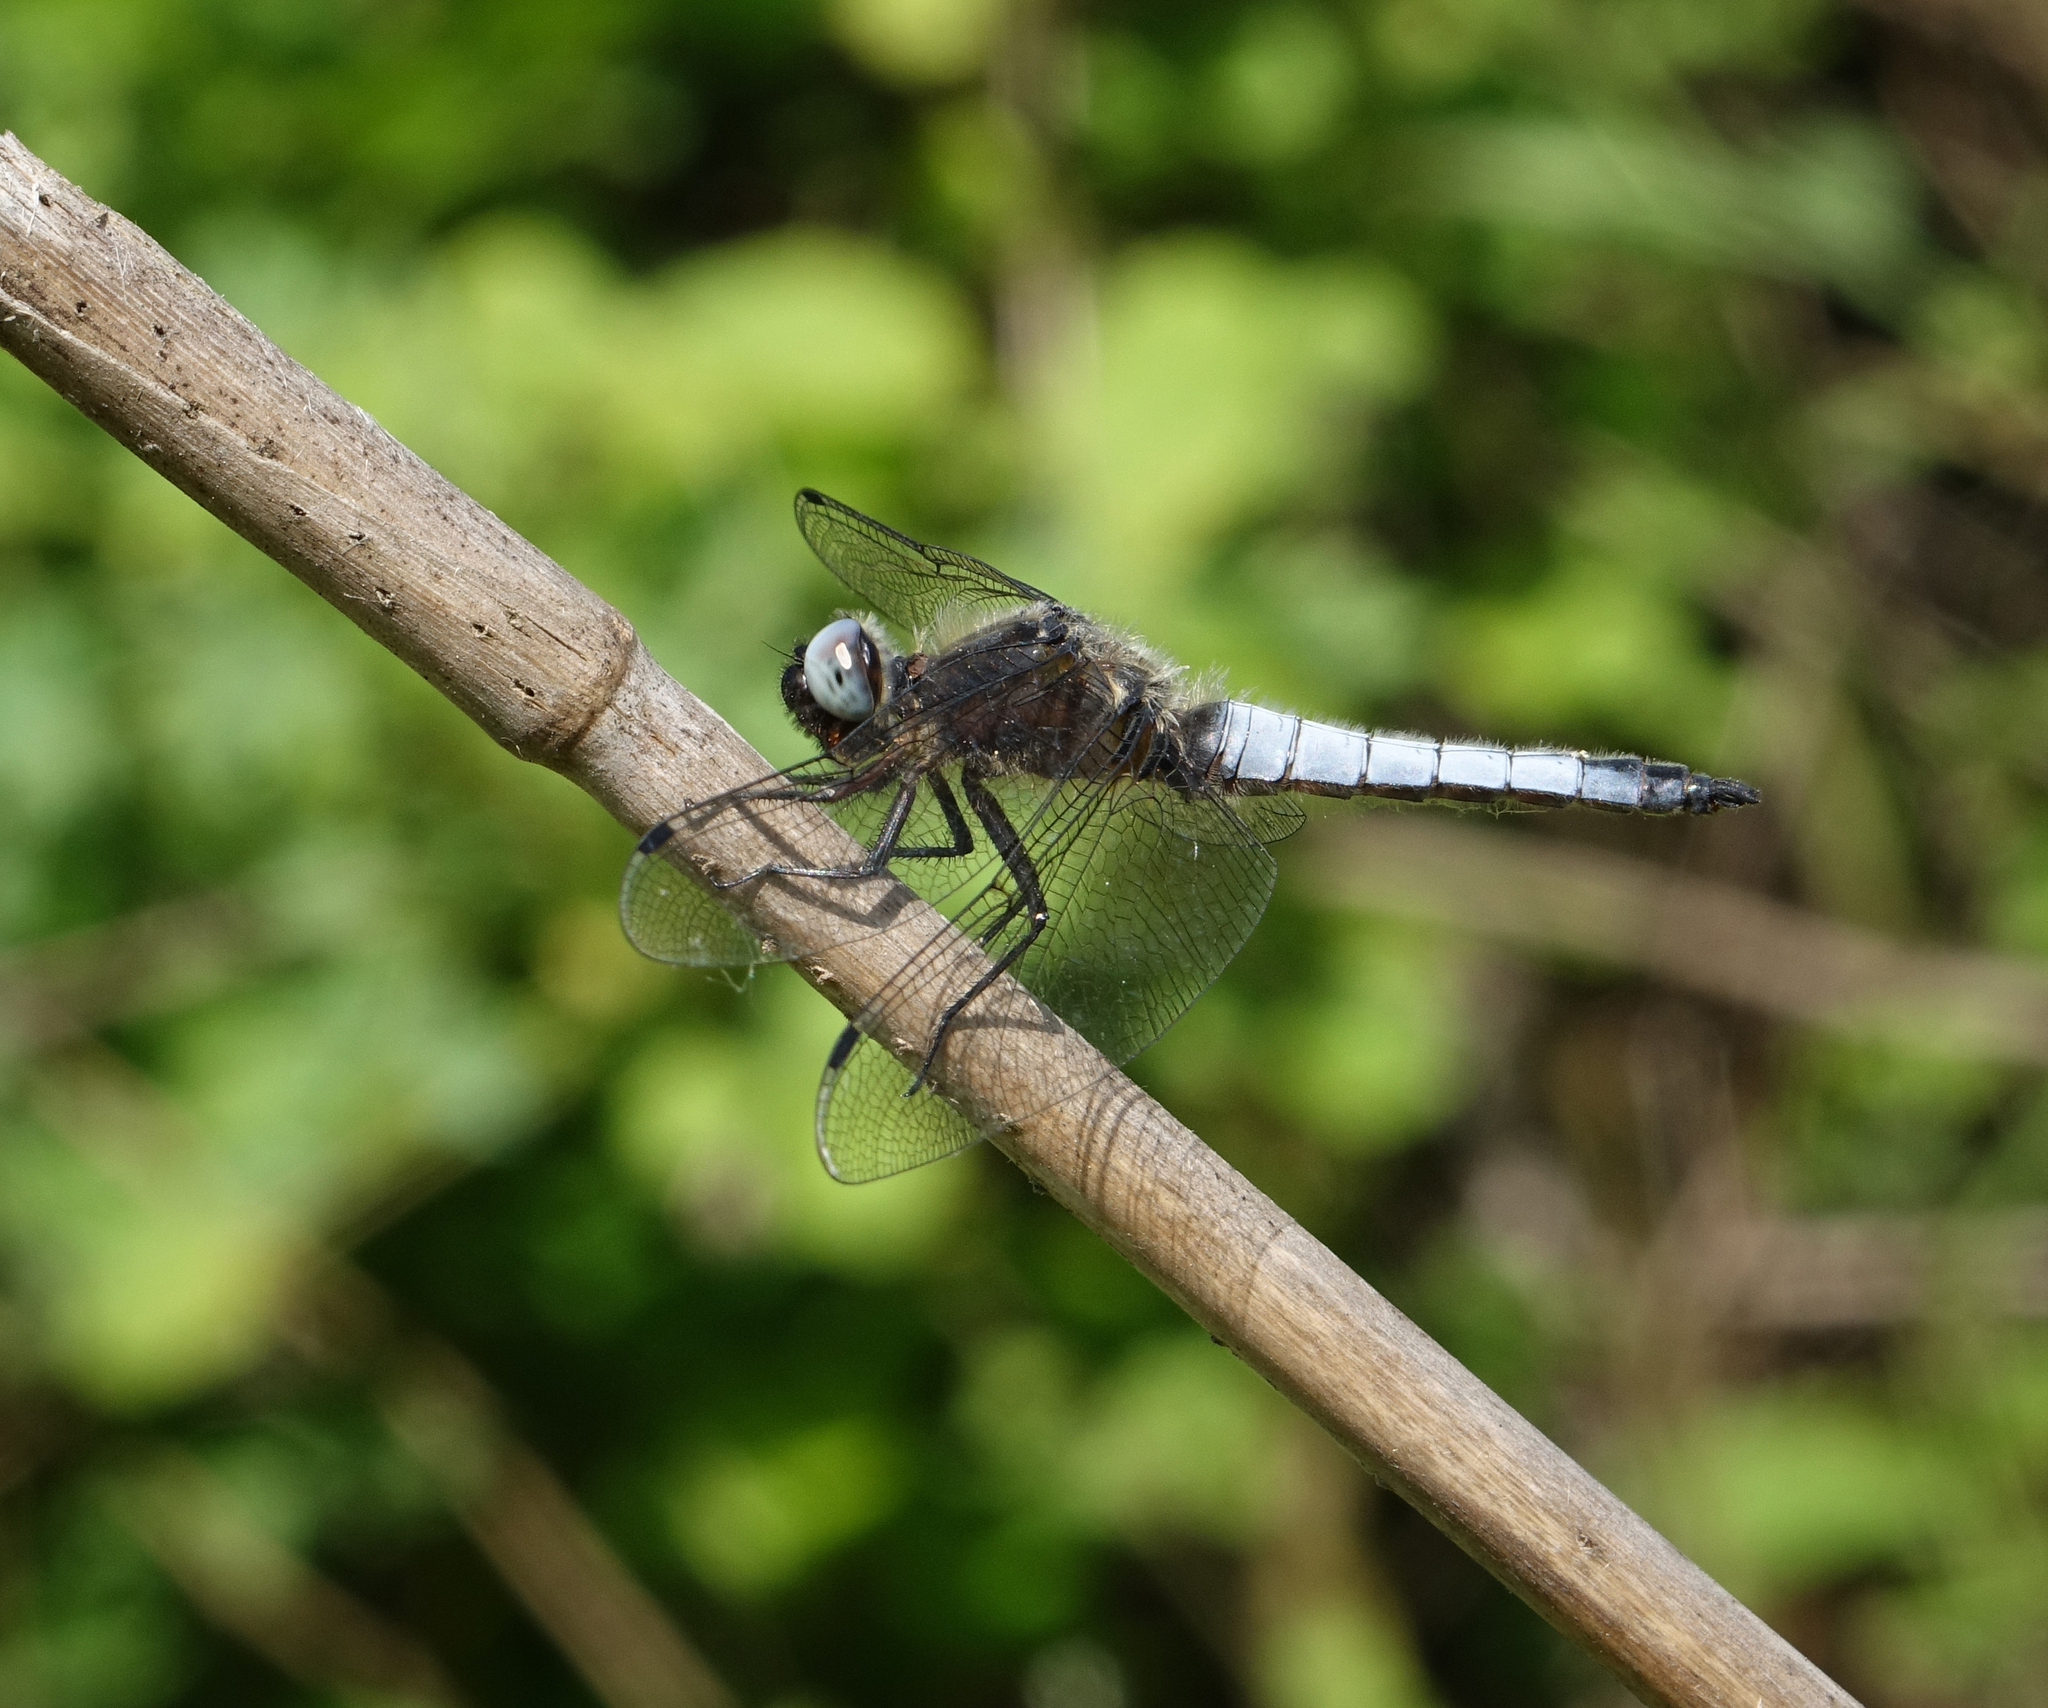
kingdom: Animalia
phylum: Arthropoda
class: Insecta
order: Odonata
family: Libellulidae
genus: Libellula
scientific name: Libellula fulva
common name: Blue chaser
